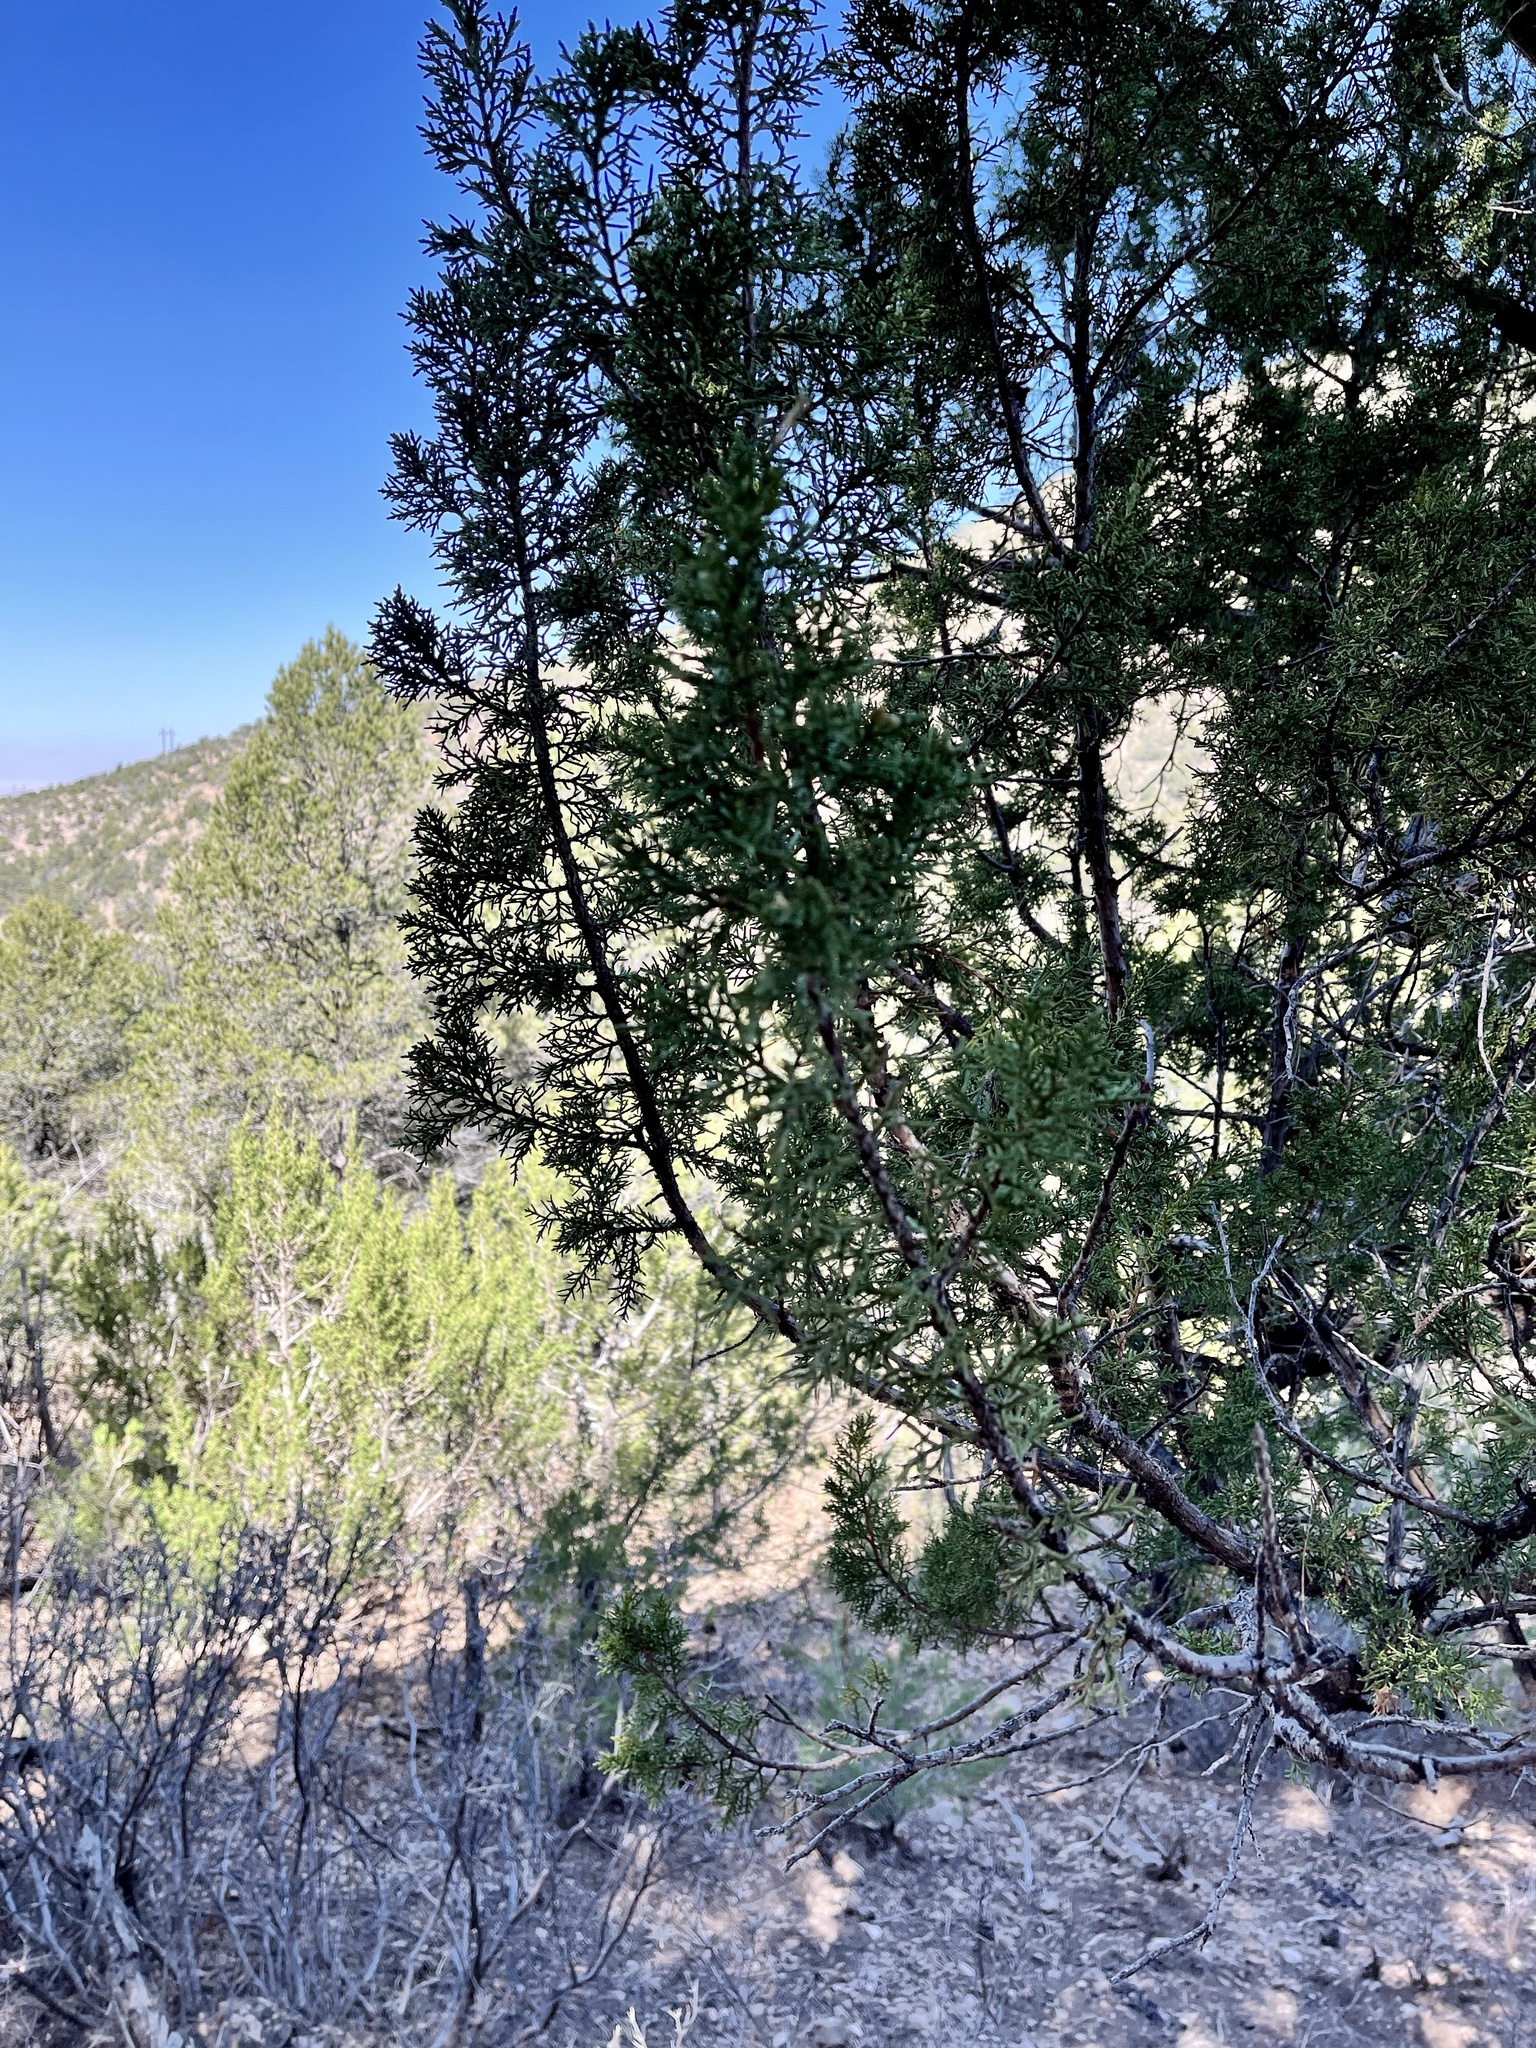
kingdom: Plantae
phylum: Tracheophyta
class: Pinopsida
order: Pinales
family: Cupressaceae
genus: Juniperus
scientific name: Juniperus monosperma
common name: One-seed juniper
